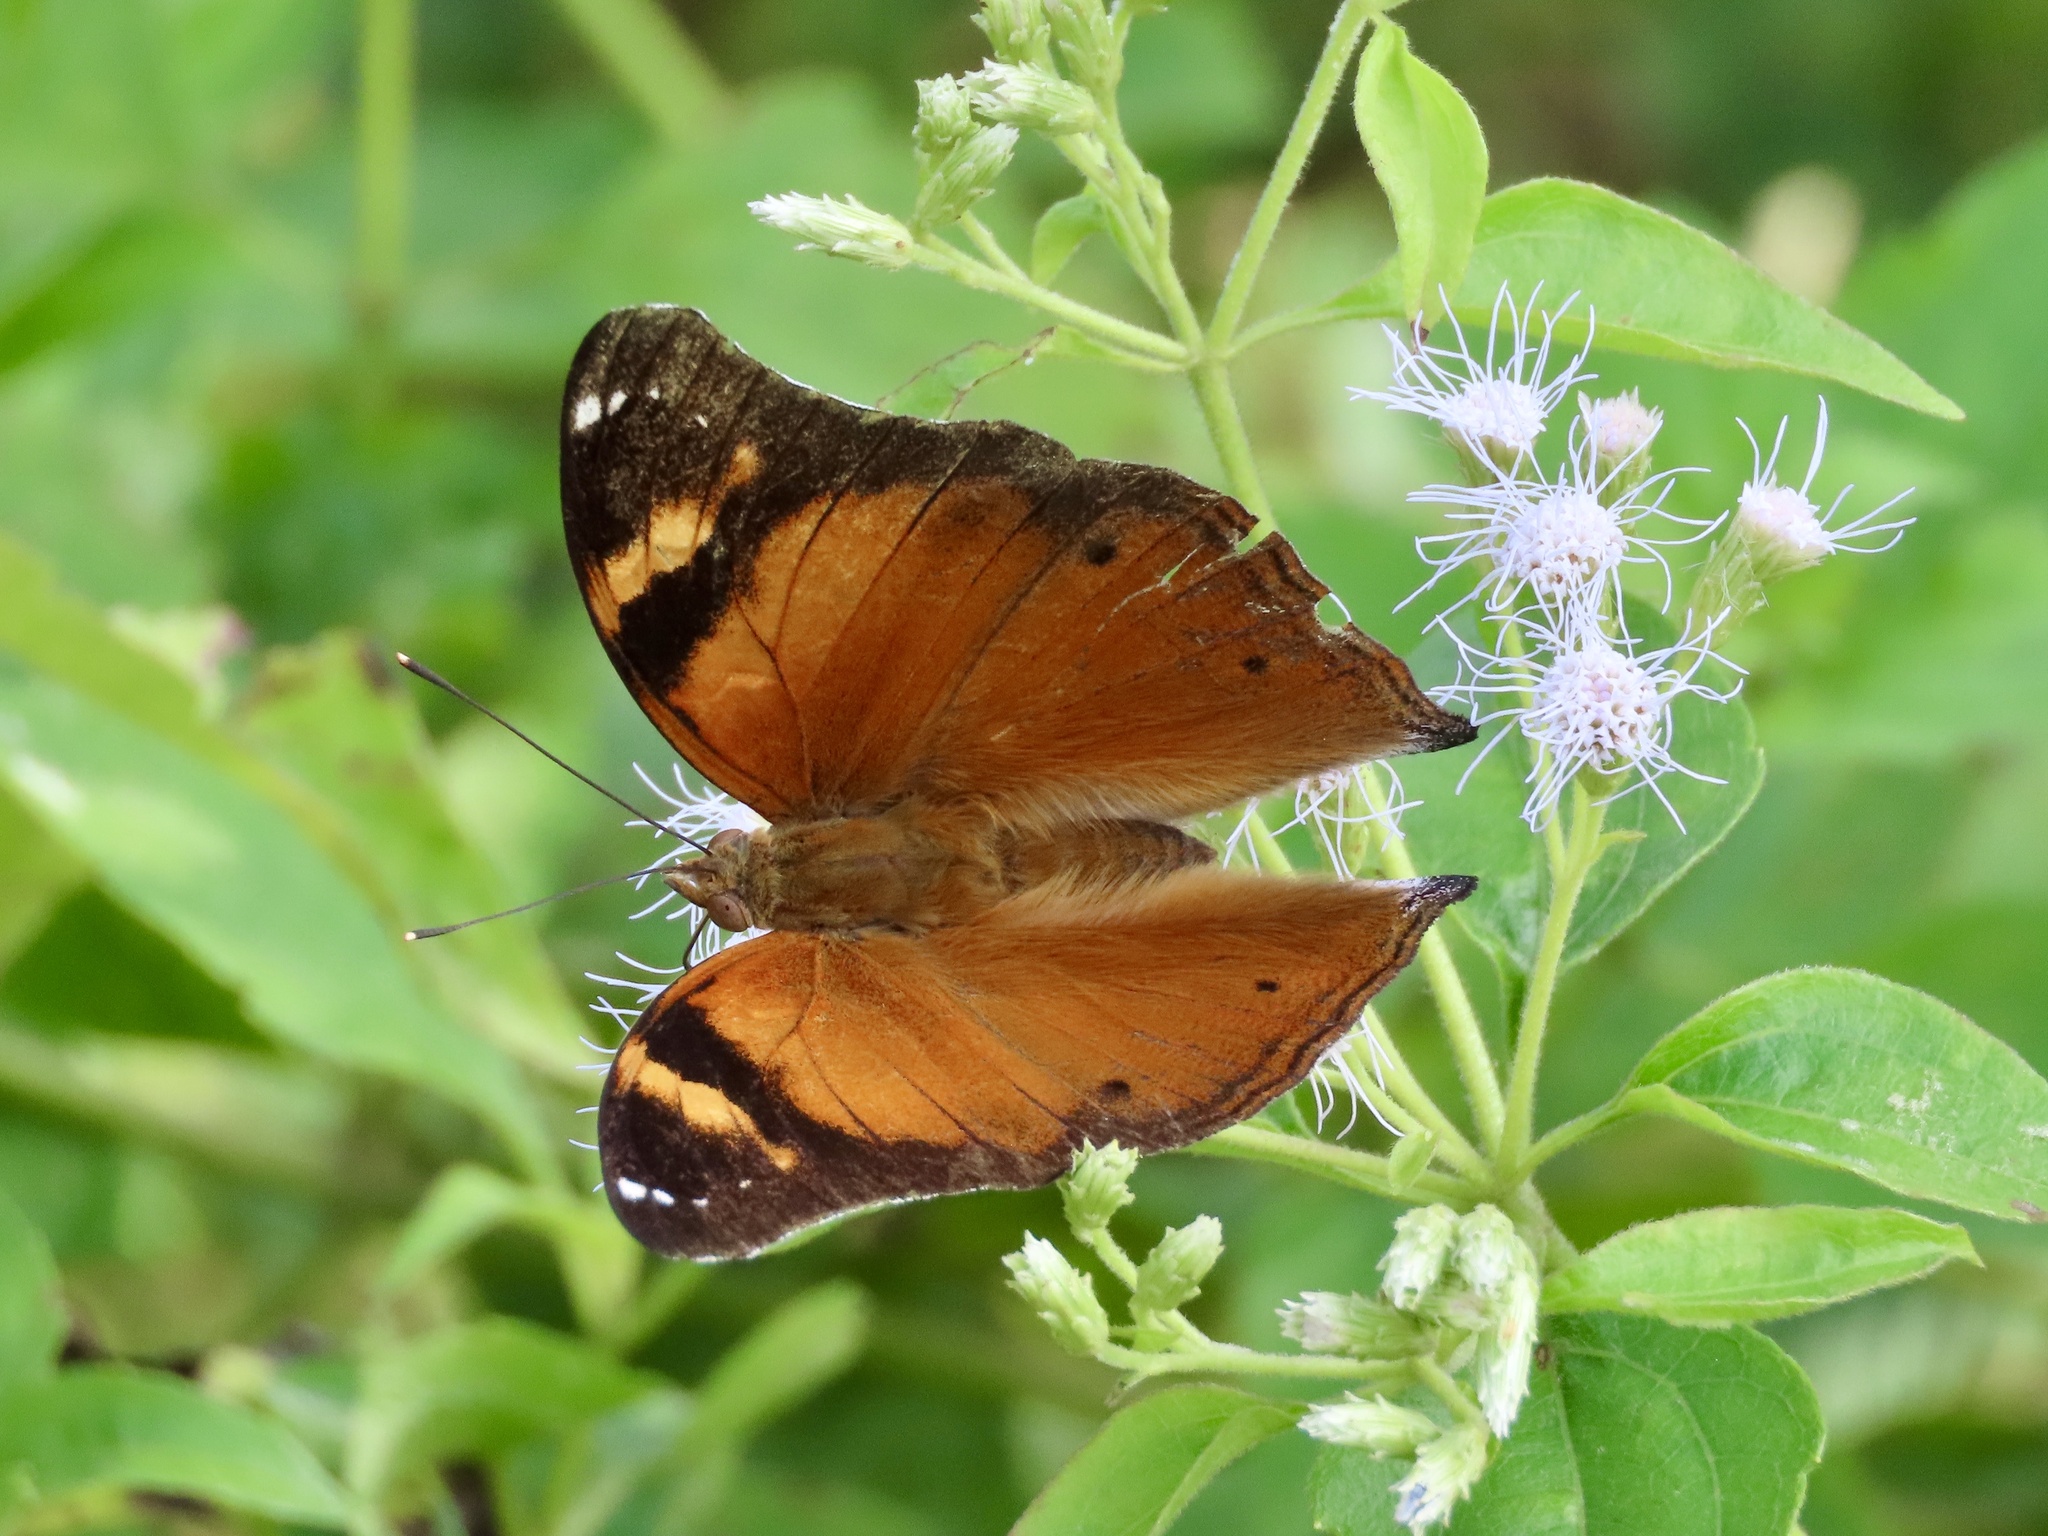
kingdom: Animalia
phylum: Arthropoda
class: Insecta
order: Lepidoptera
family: Nymphalidae
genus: Doleschallia
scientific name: Doleschallia bisaltide
